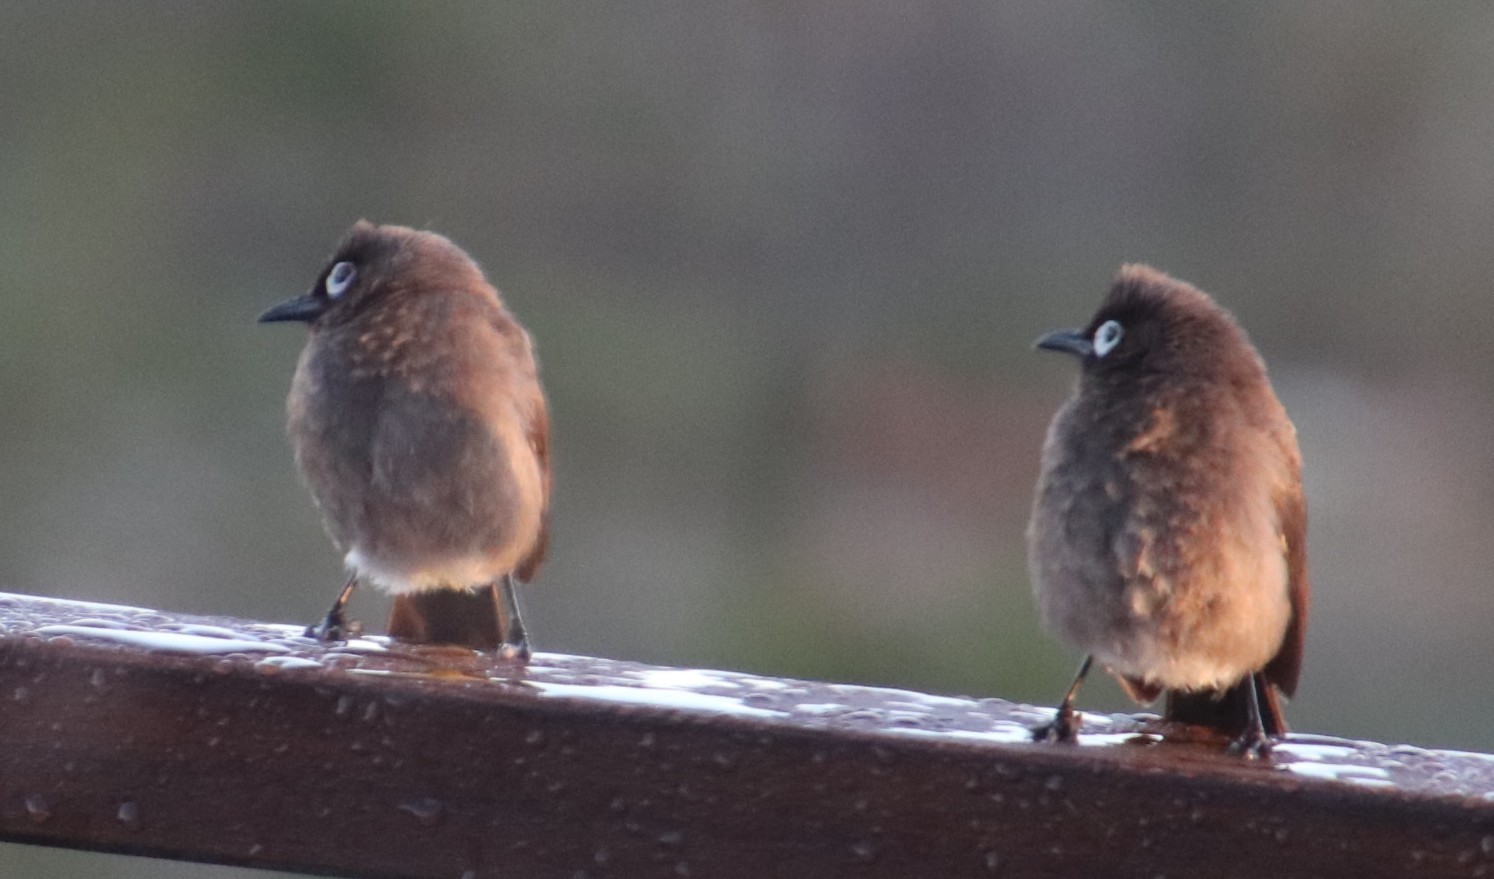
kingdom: Animalia
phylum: Chordata
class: Aves
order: Passeriformes
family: Pycnonotidae
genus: Pycnonotus
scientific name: Pycnonotus capensis
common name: Cape bulbul
